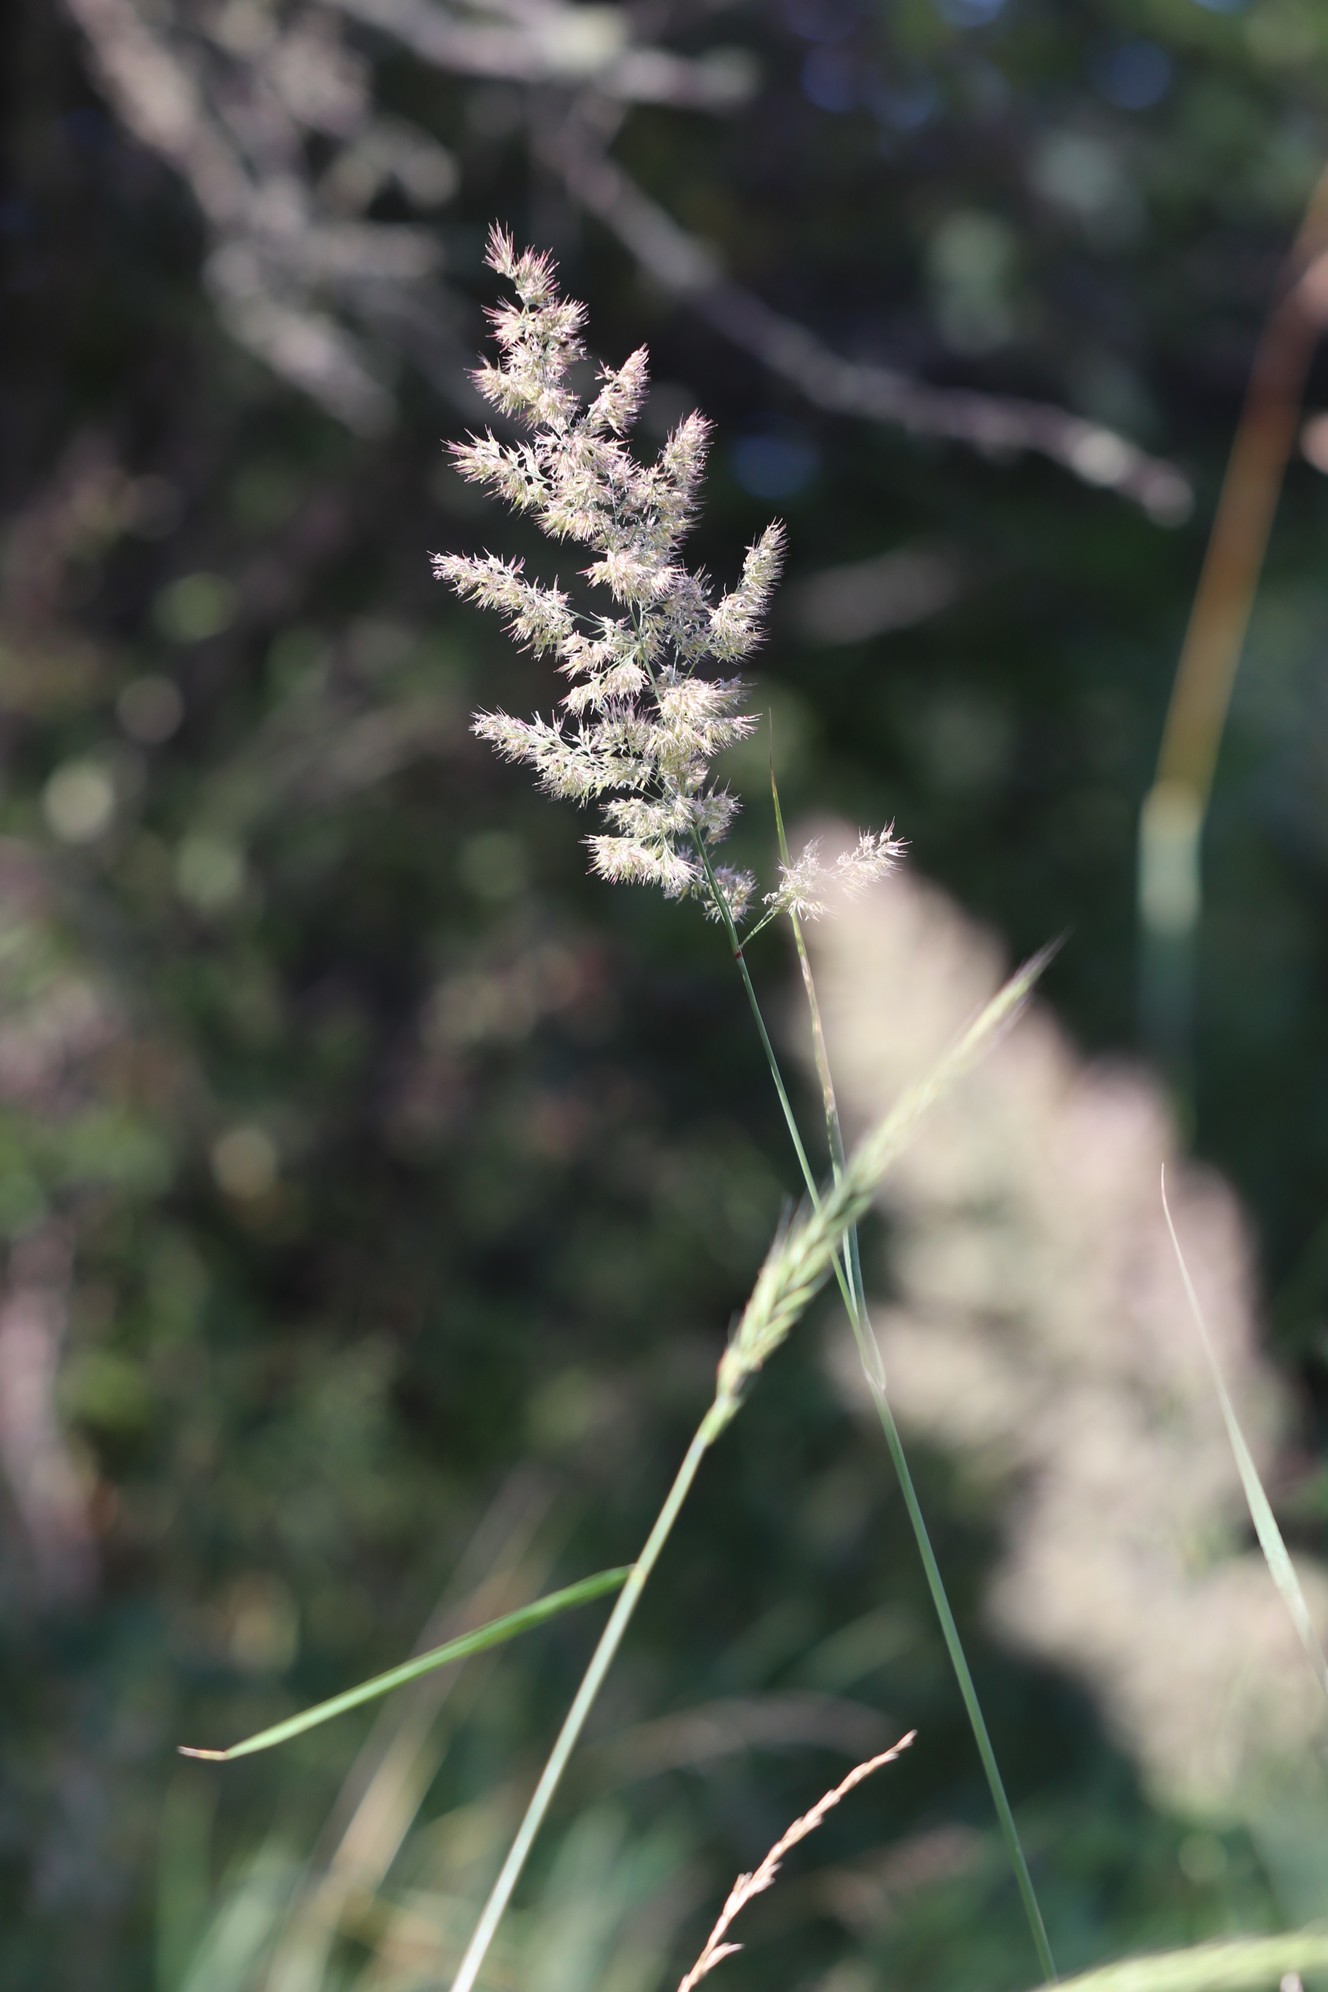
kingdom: Plantae
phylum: Tracheophyta
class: Liliopsida
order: Poales
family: Poaceae
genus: Calamagrostis
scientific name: Calamagrostis epigejos
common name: Wood small-reed
